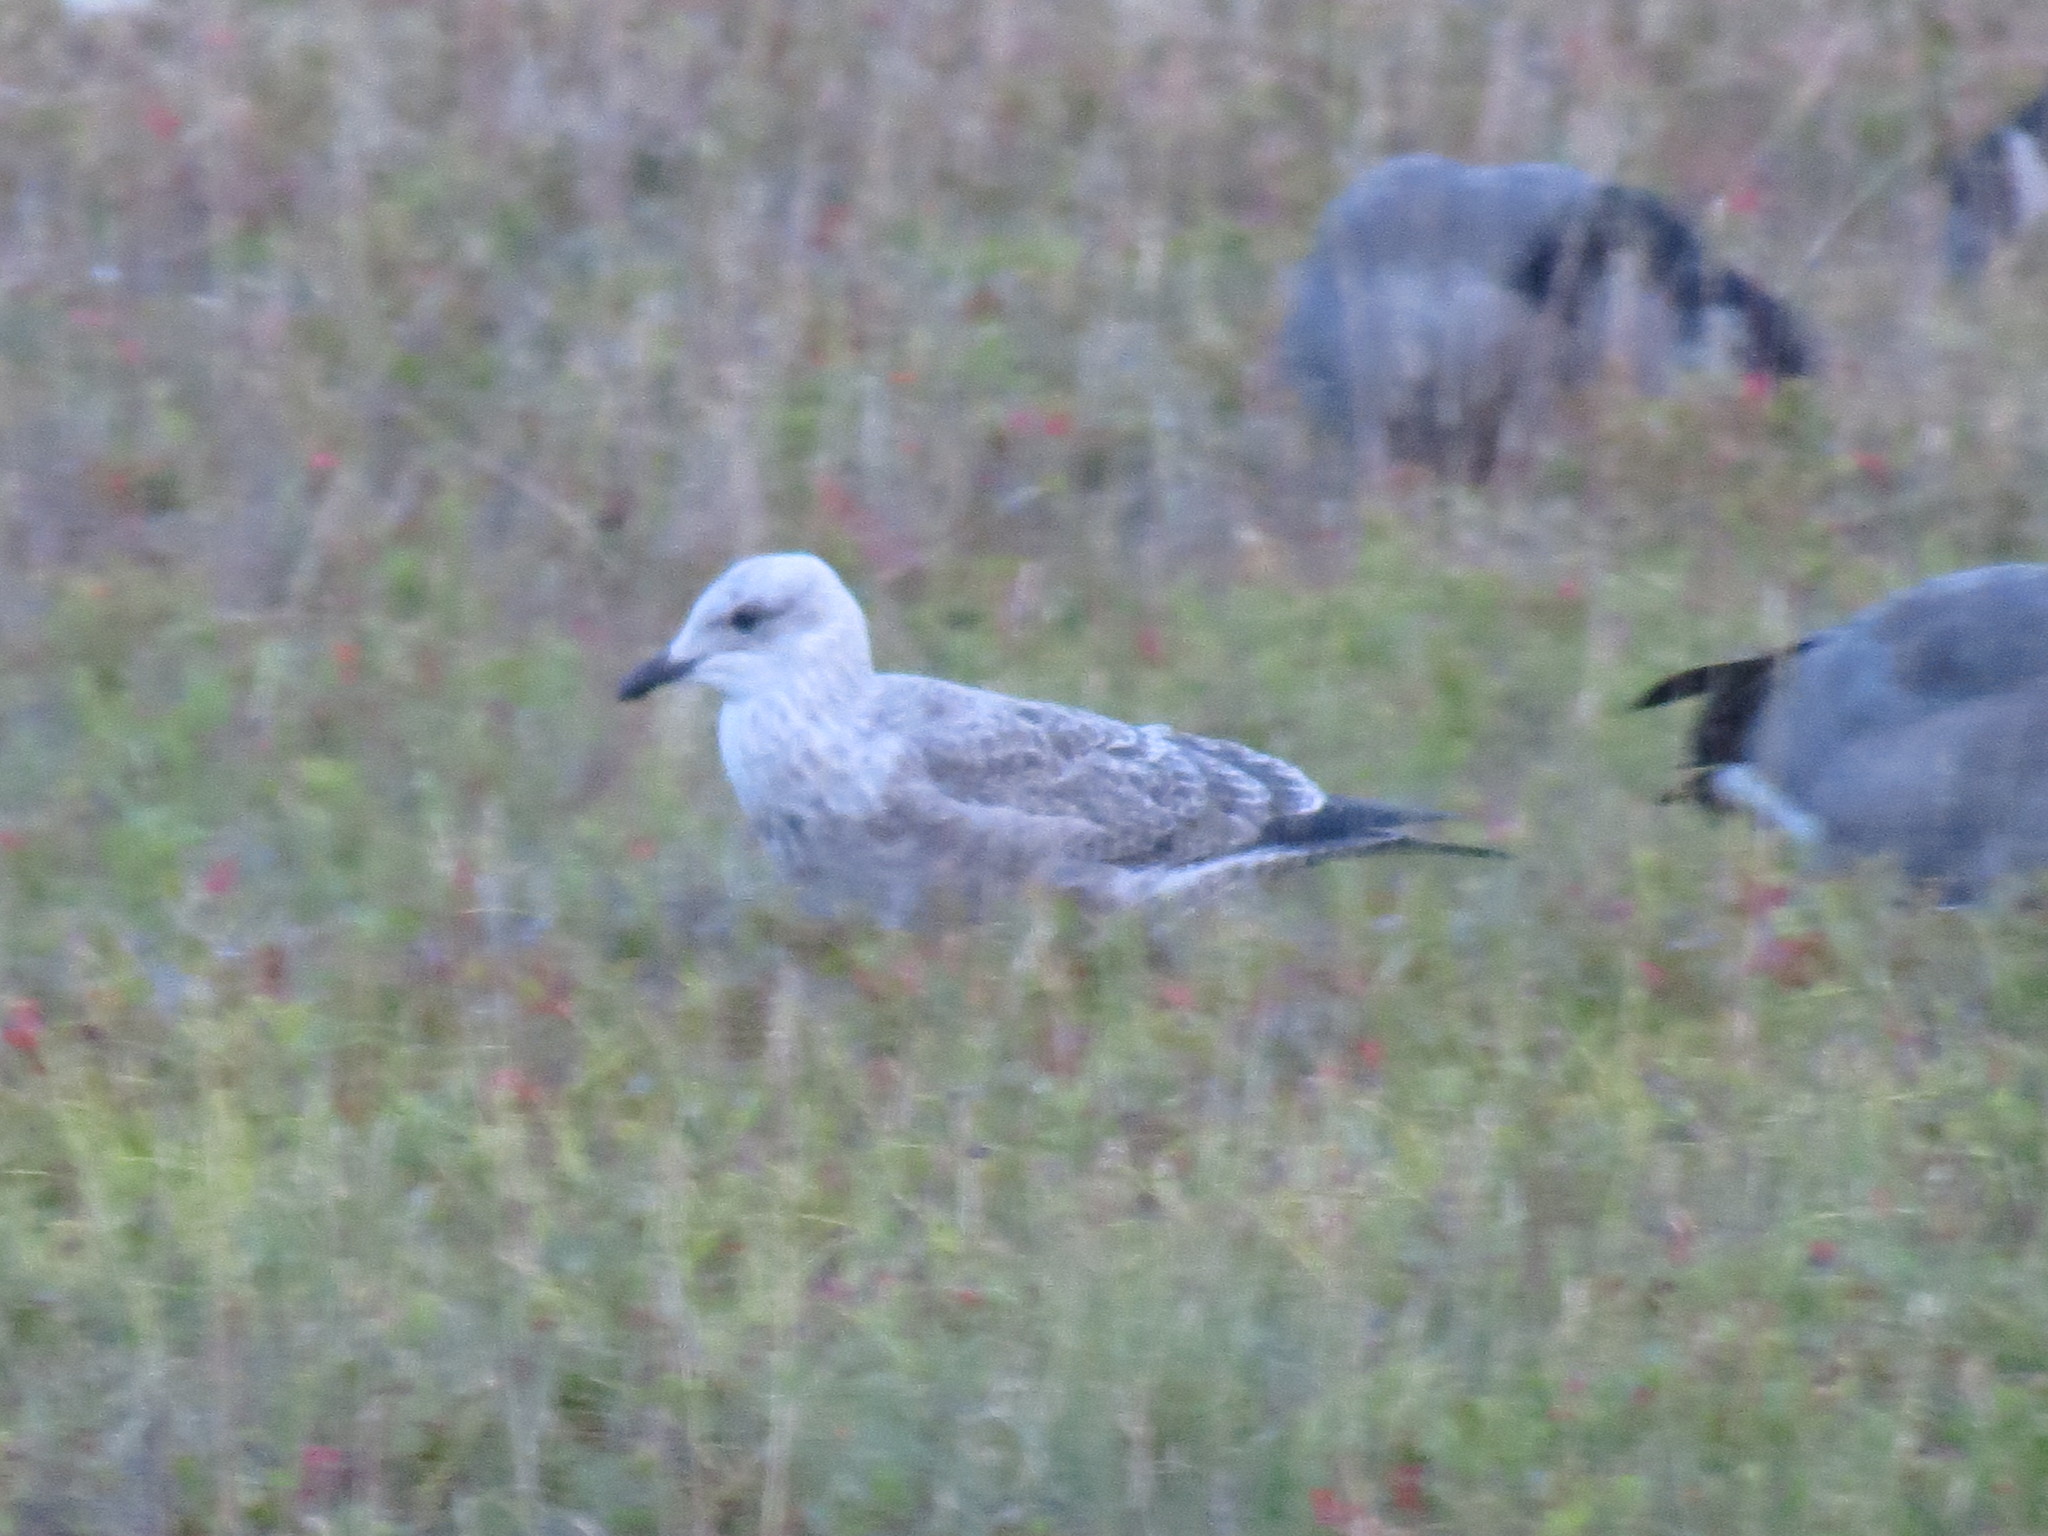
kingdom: Animalia
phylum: Chordata
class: Aves
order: Charadriiformes
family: Laridae
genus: Larus
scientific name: Larus argentatus
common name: Herring gull
